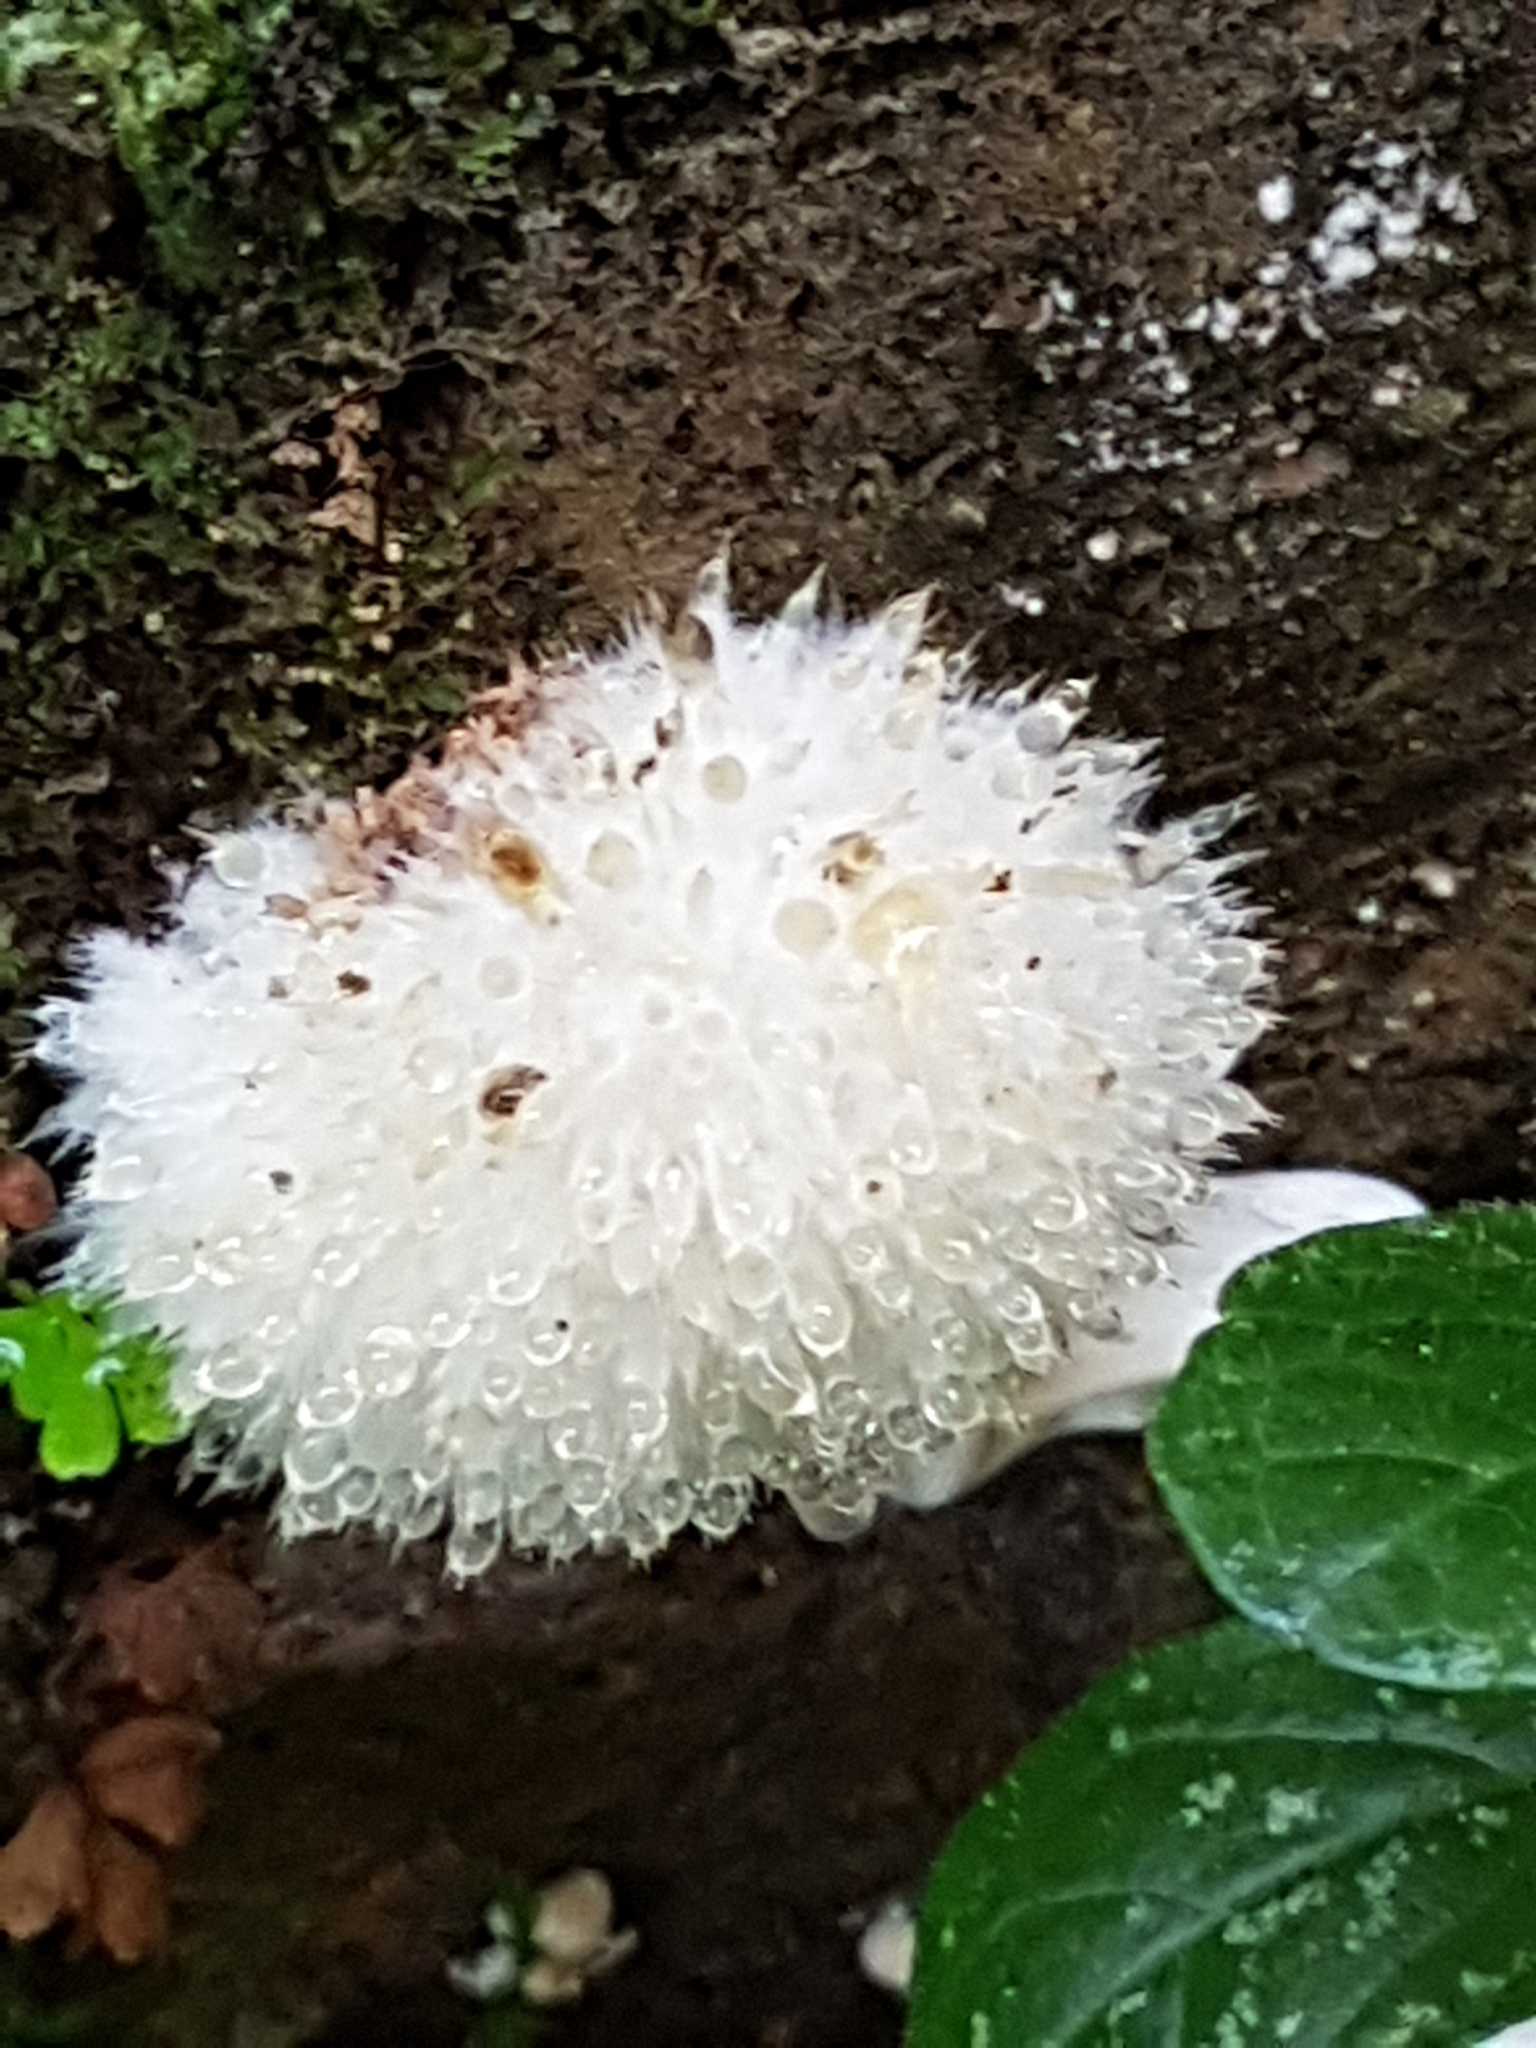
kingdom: Fungi
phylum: Basidiomycota
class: Agaricomycetes
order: Polyporales
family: Dacryobolaceae
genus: Postia
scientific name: Postia ptychogaster
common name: Powderpuff bracket
